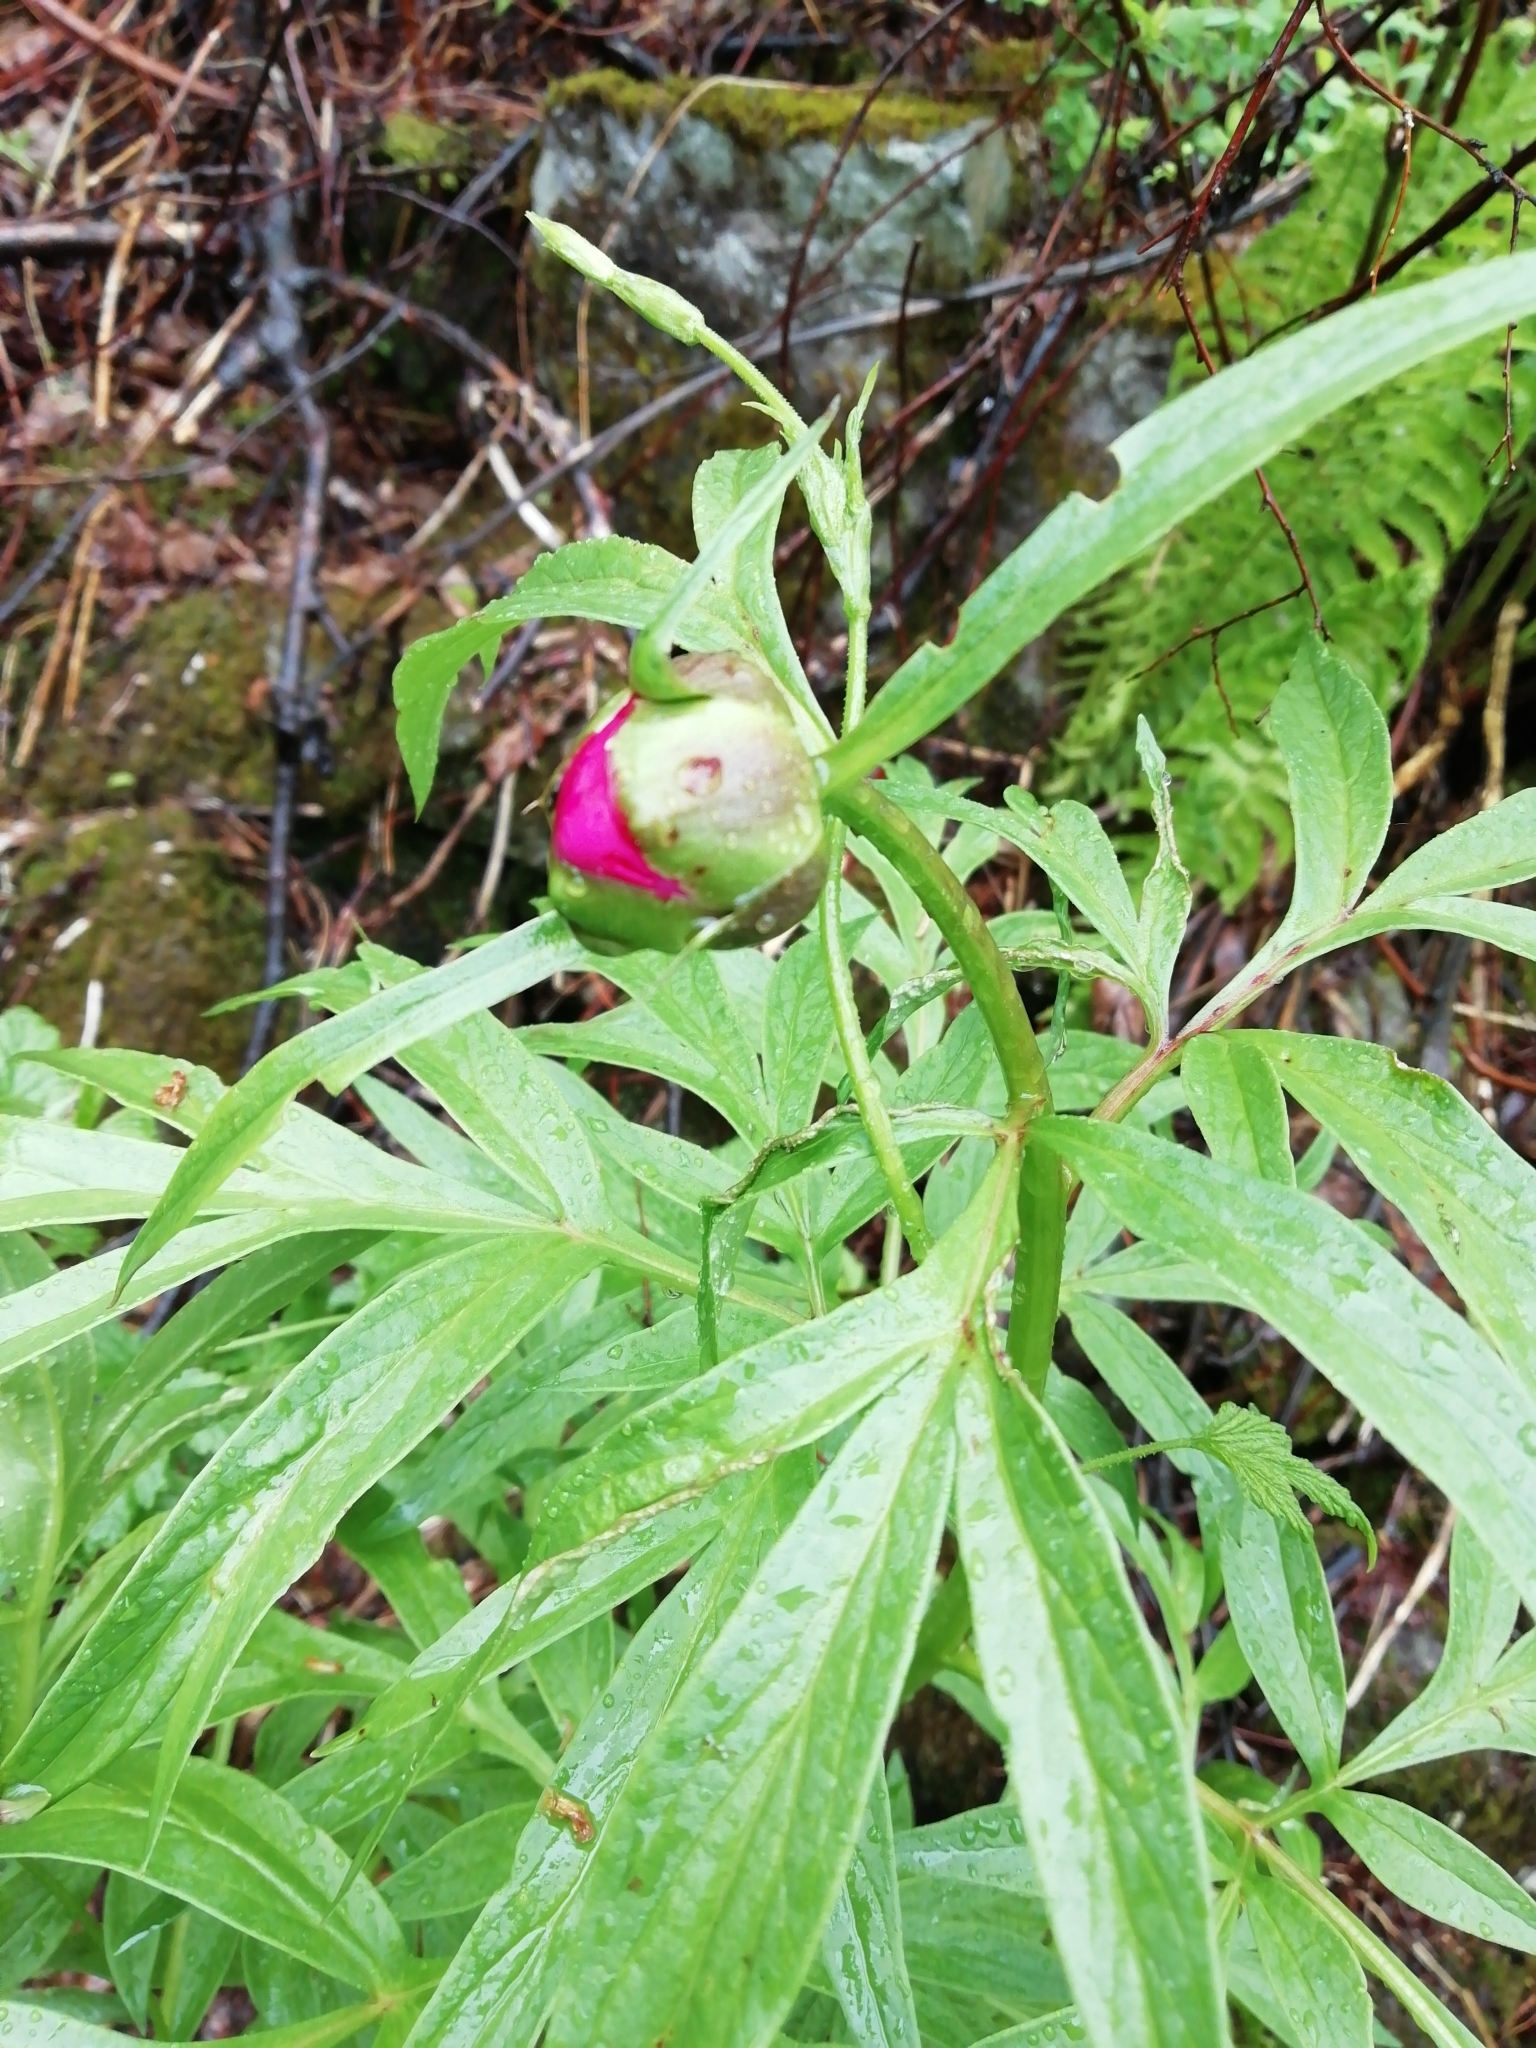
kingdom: Plantae
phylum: Tracheophyta
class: Magnoliopsida
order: Saxifragales
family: Paeoniaceae
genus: Paeonia
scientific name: Paeonia anomala
